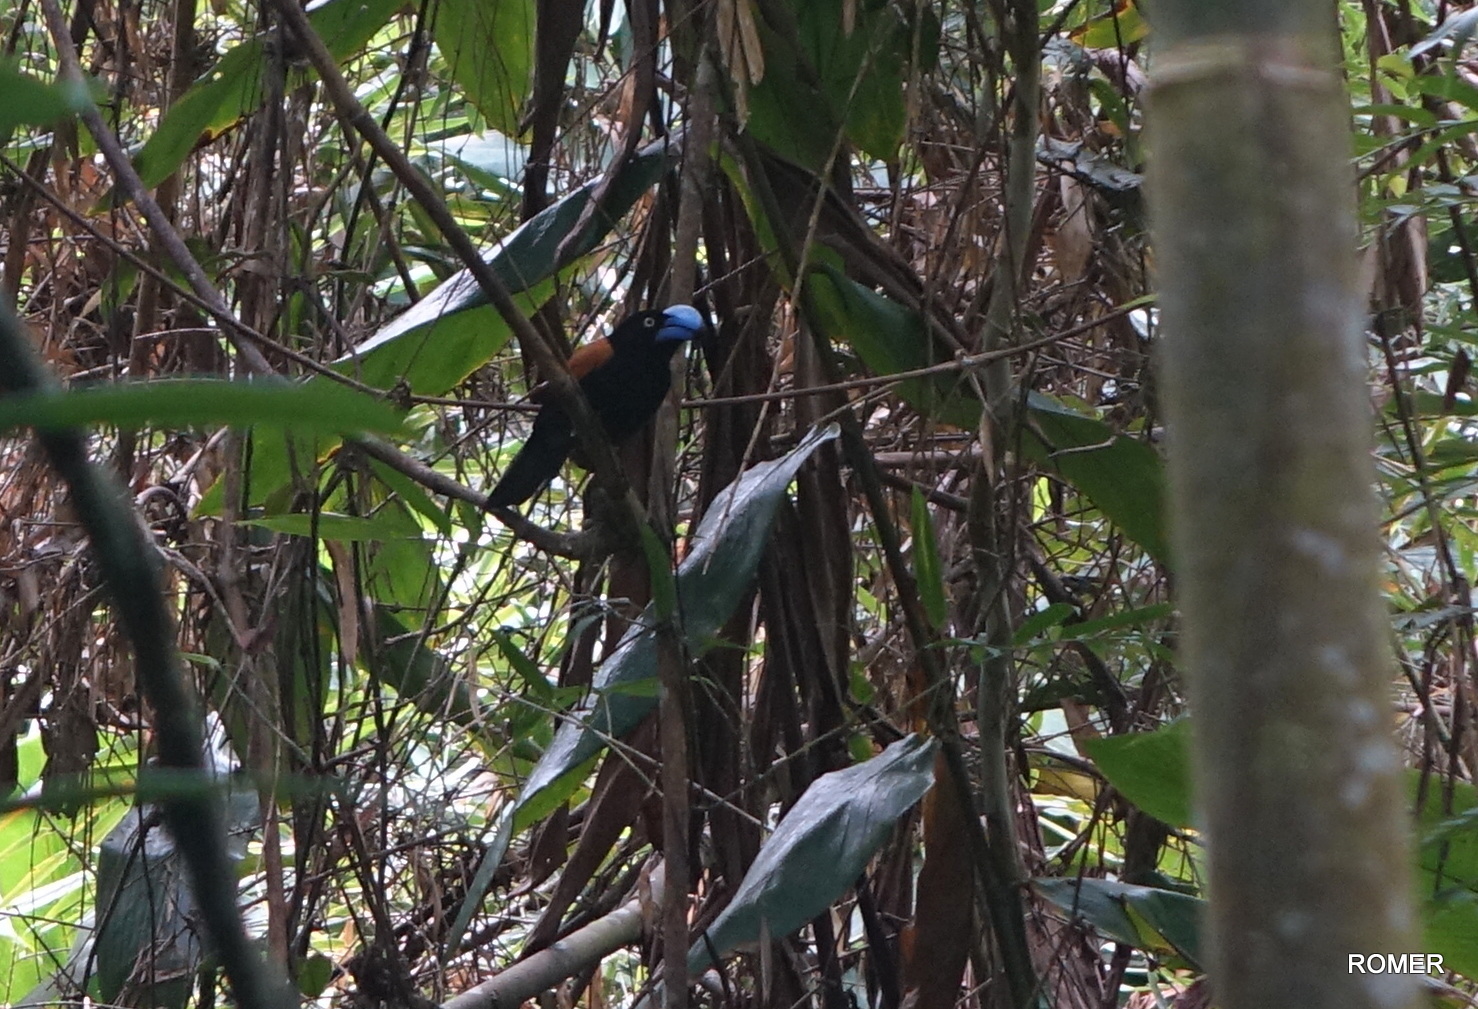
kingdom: Animalia
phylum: Chordata
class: Aves
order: Passeriformes
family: Vangidae
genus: Euryceros
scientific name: Euryceros prevostii
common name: Helmet vanga
